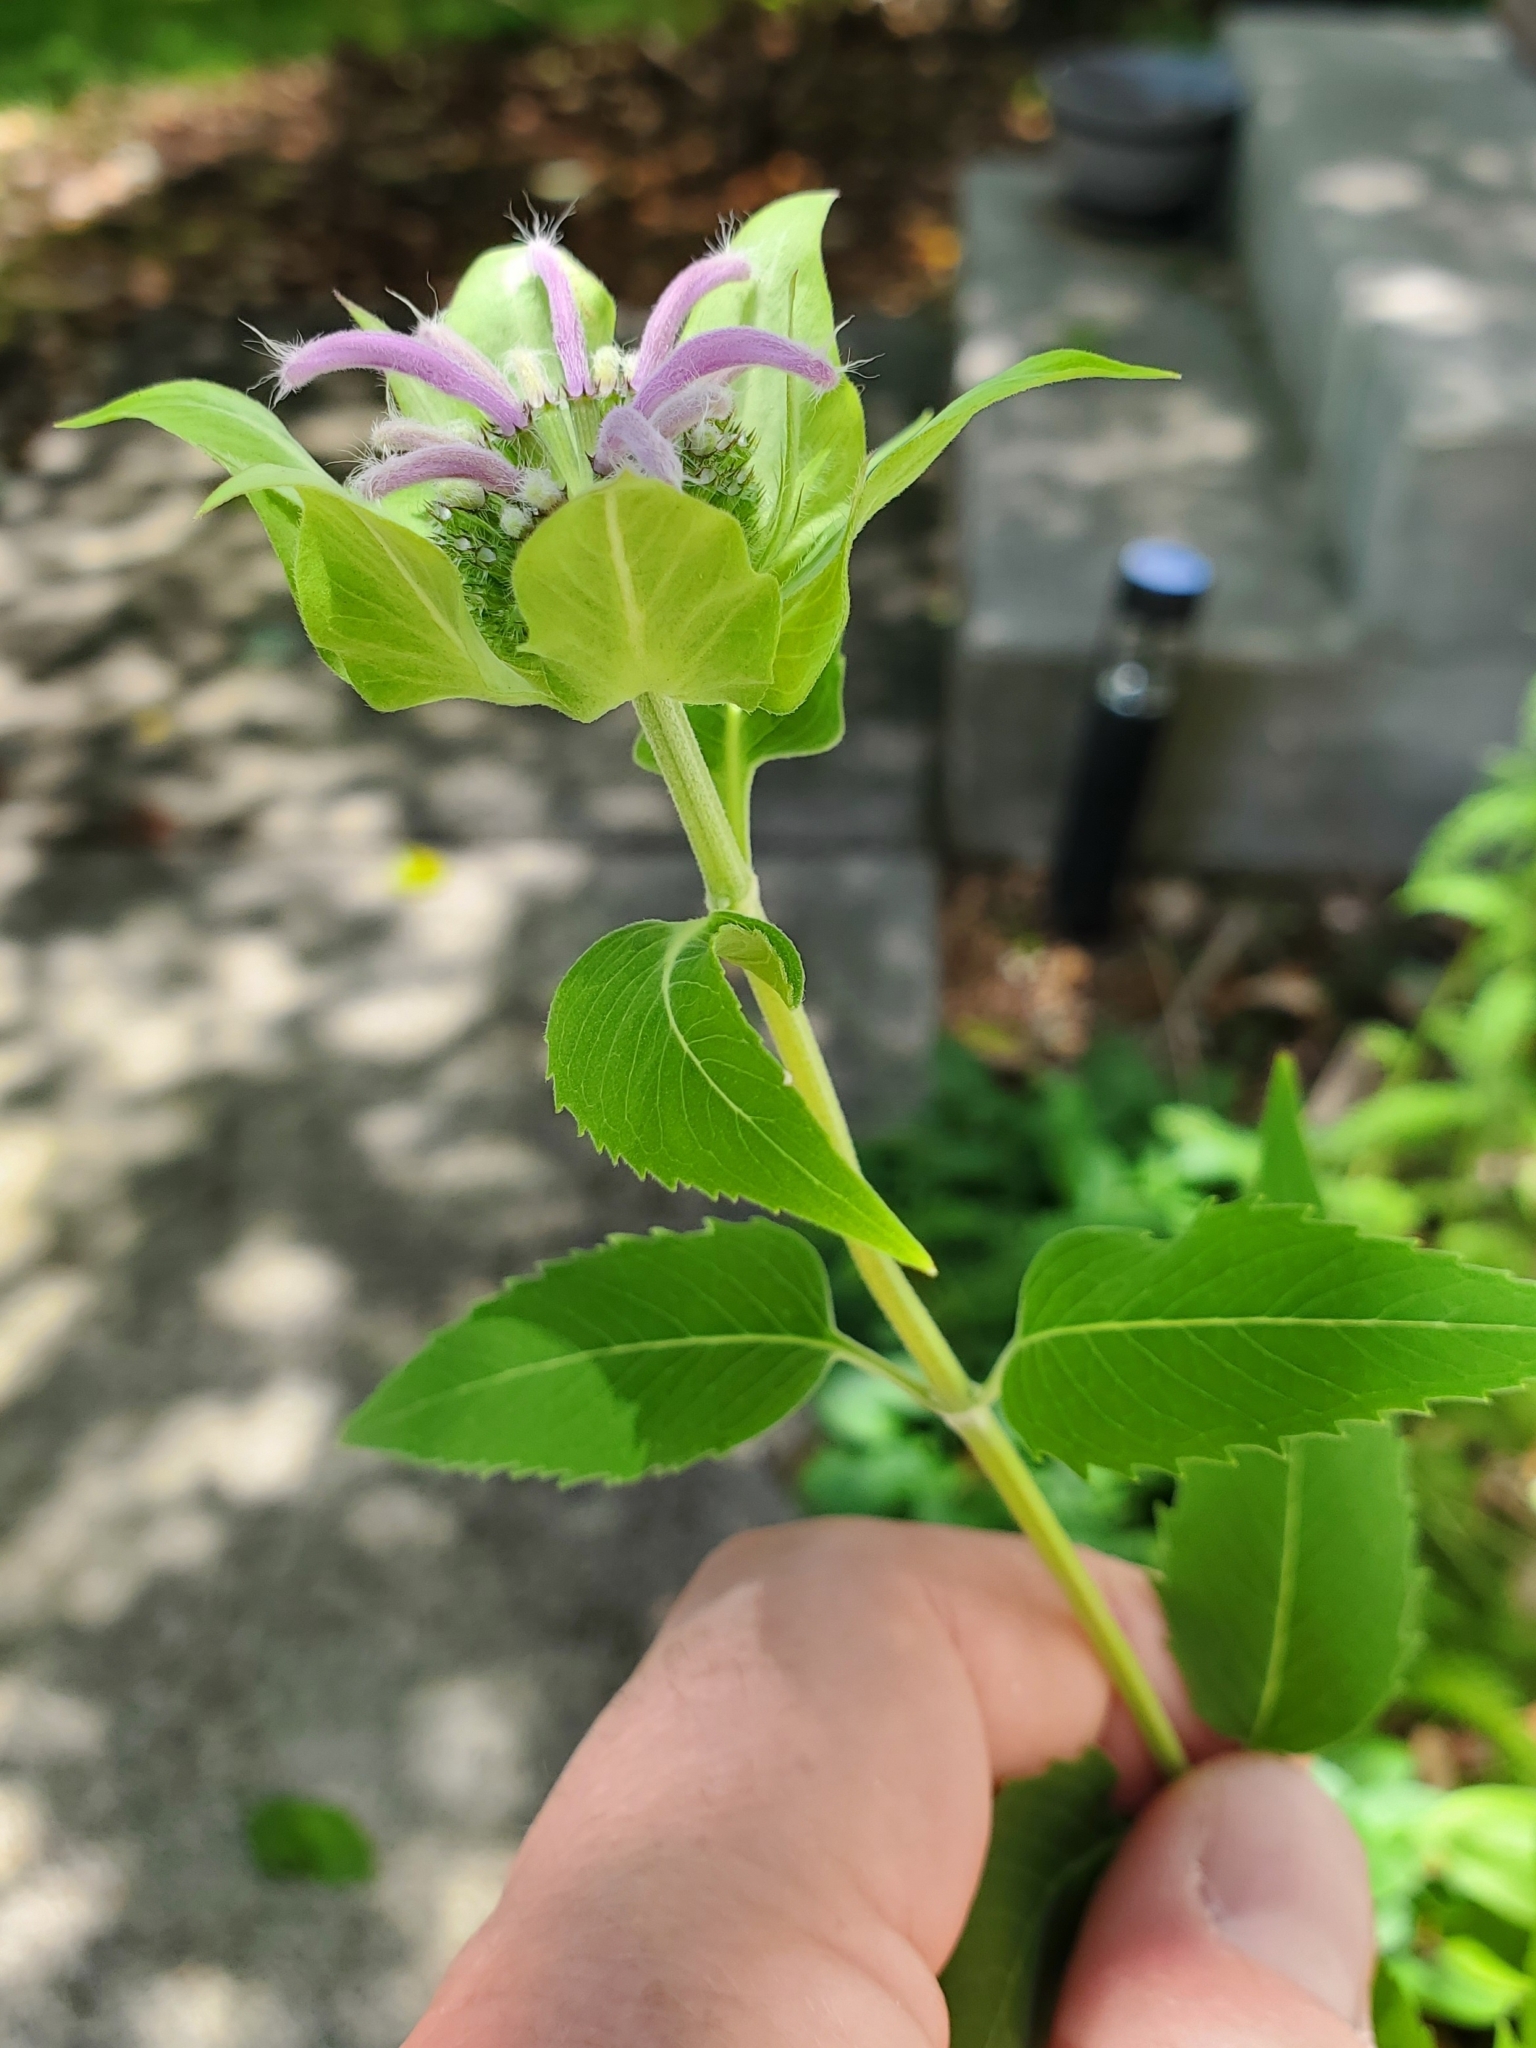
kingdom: Plantae
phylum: Tracheophyta
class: Magnoliopsida
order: Lamiales
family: Lamiaceae
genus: Monarda
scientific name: Monarda fistulosa
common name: Purple beebalm
